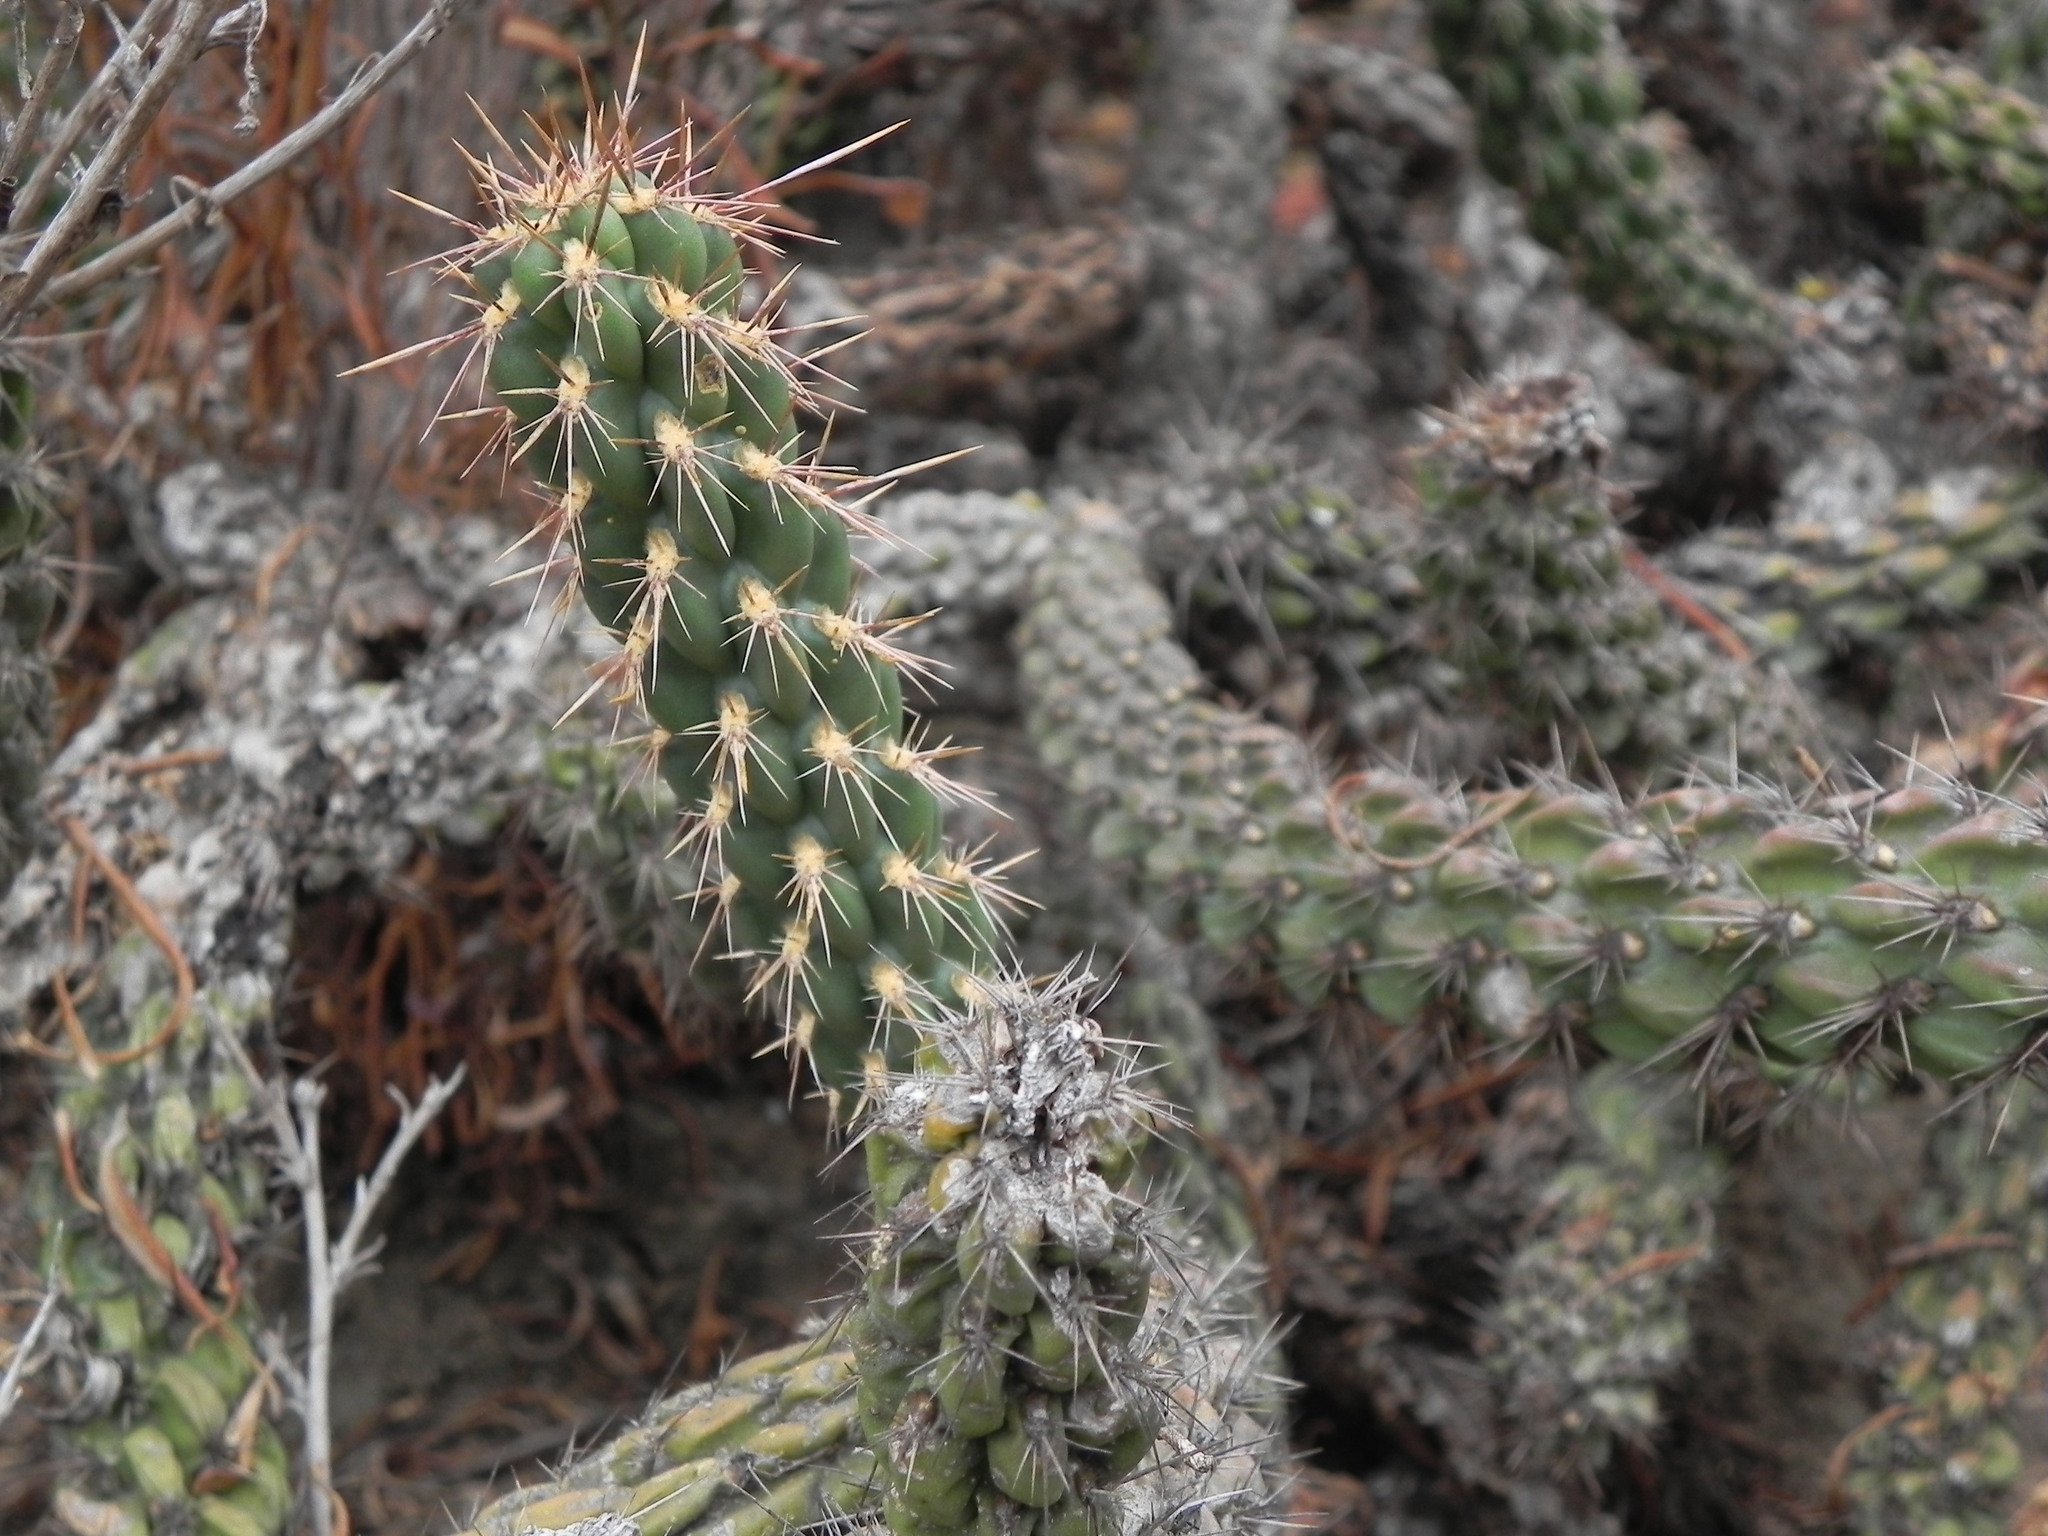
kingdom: Plantae
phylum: Tracheophyta
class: Magnoliopsida
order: Caryophyllales
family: Cactaceae
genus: Cylindropuntia
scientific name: Cylindropuntia californica
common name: Snake cholla
